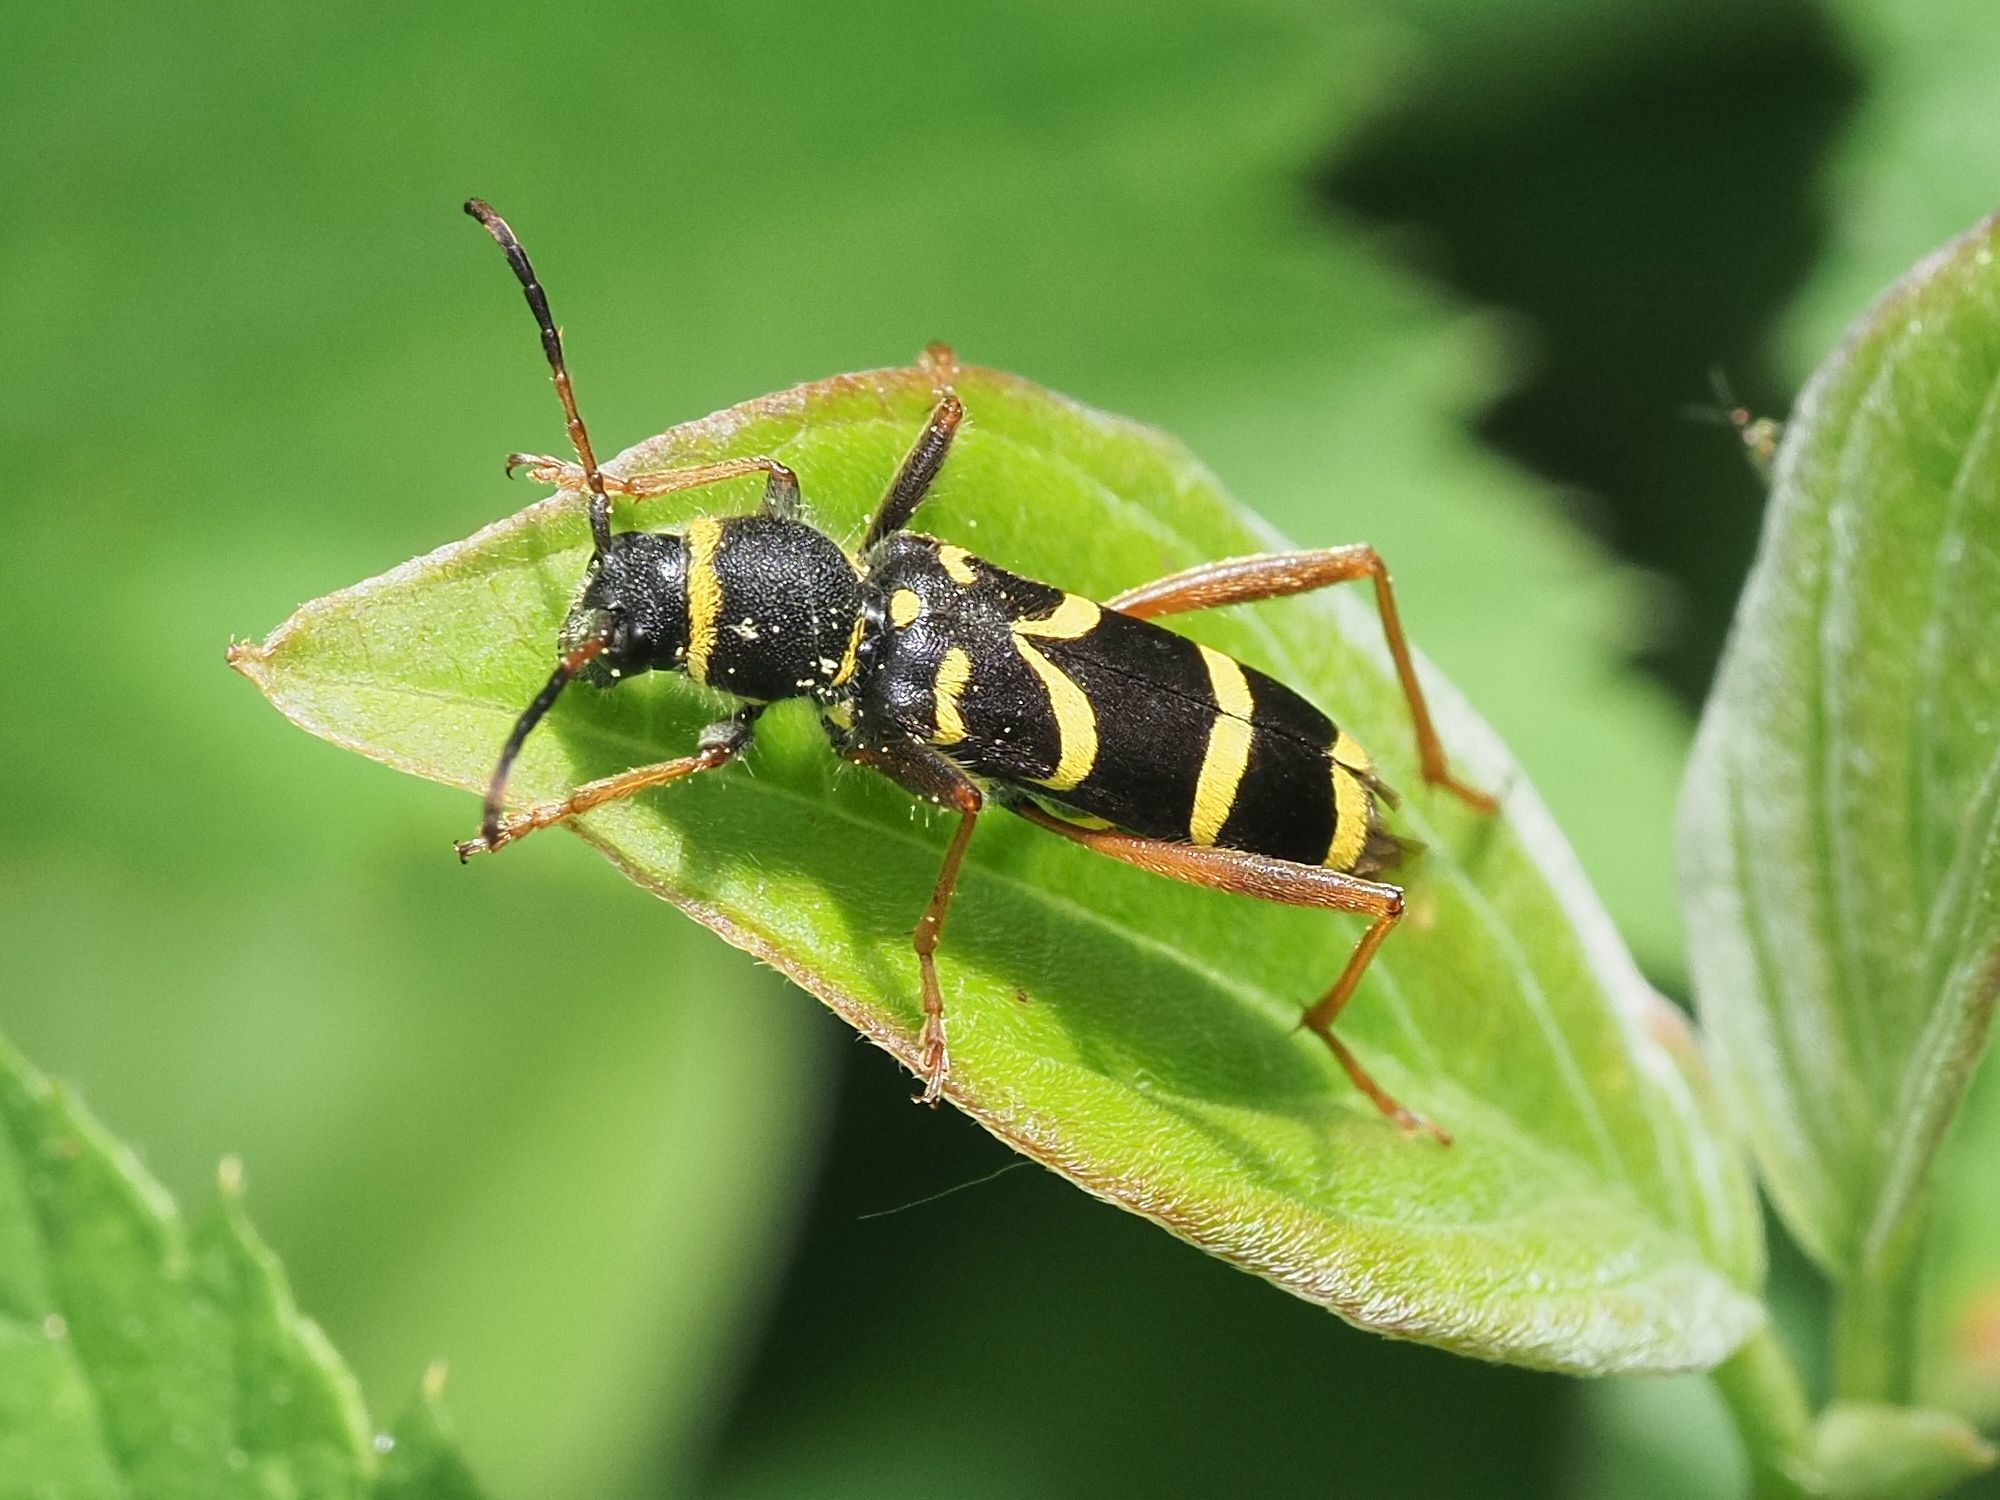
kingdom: Animalia
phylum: Arthropoda
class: Insecta
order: Coleoptera
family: Cerambycidae
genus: Clytus
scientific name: Clytus arietis
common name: Wasp beetle
